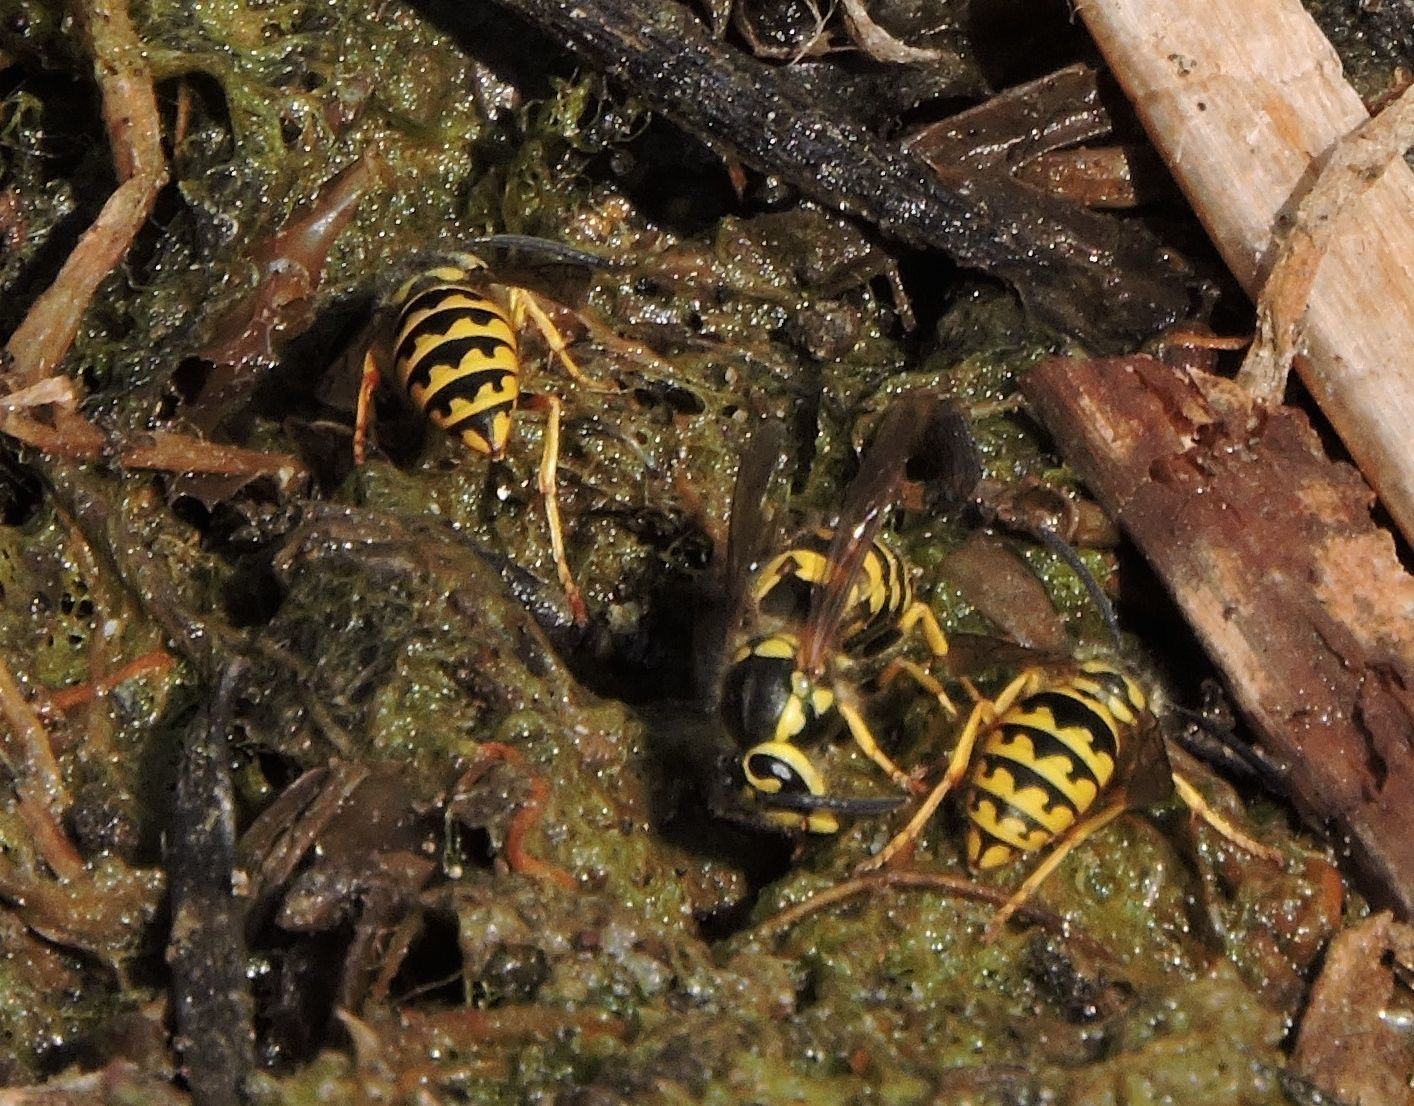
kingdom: Animalia
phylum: Arthropoda
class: Insecta
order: Hymenoptera
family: Vespidae
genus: Vespula
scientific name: Vespula pensylvanica
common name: Western yellowjacket
